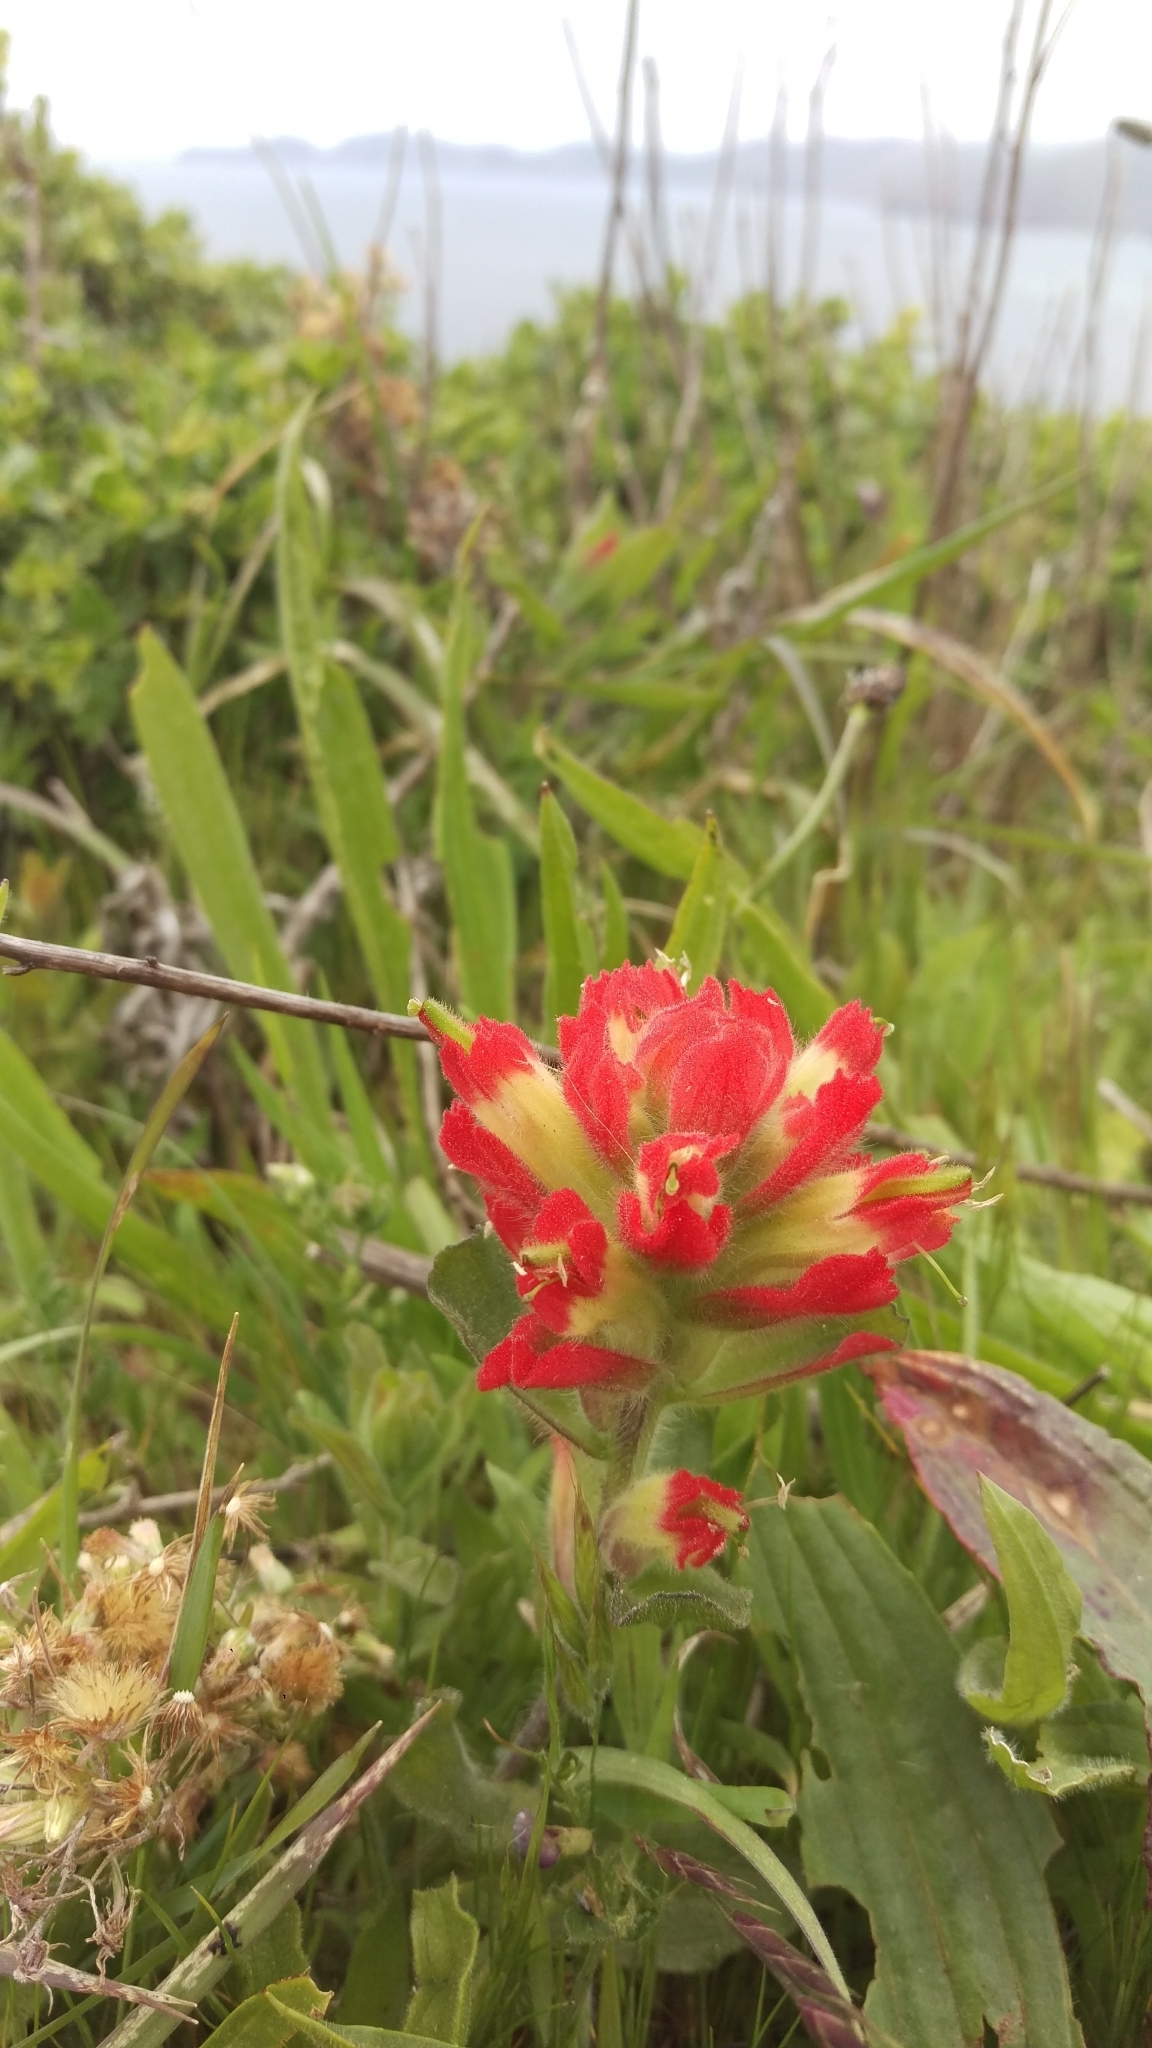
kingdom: Plantae
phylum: Tracheophyta
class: Magnoliopsida
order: Lamiales
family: Orobanchaceae
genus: Castilleja
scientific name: Castilleja affinis
